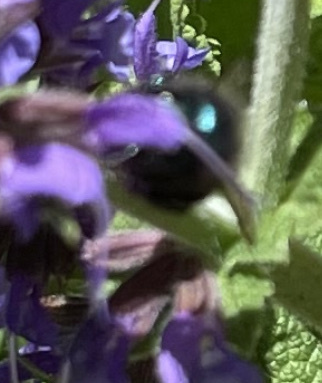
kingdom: Animalia
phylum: Arthropoda
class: Insecta
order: Hymenoptera
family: Megachilidae
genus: Osmia
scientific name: Osmia ribifloris
